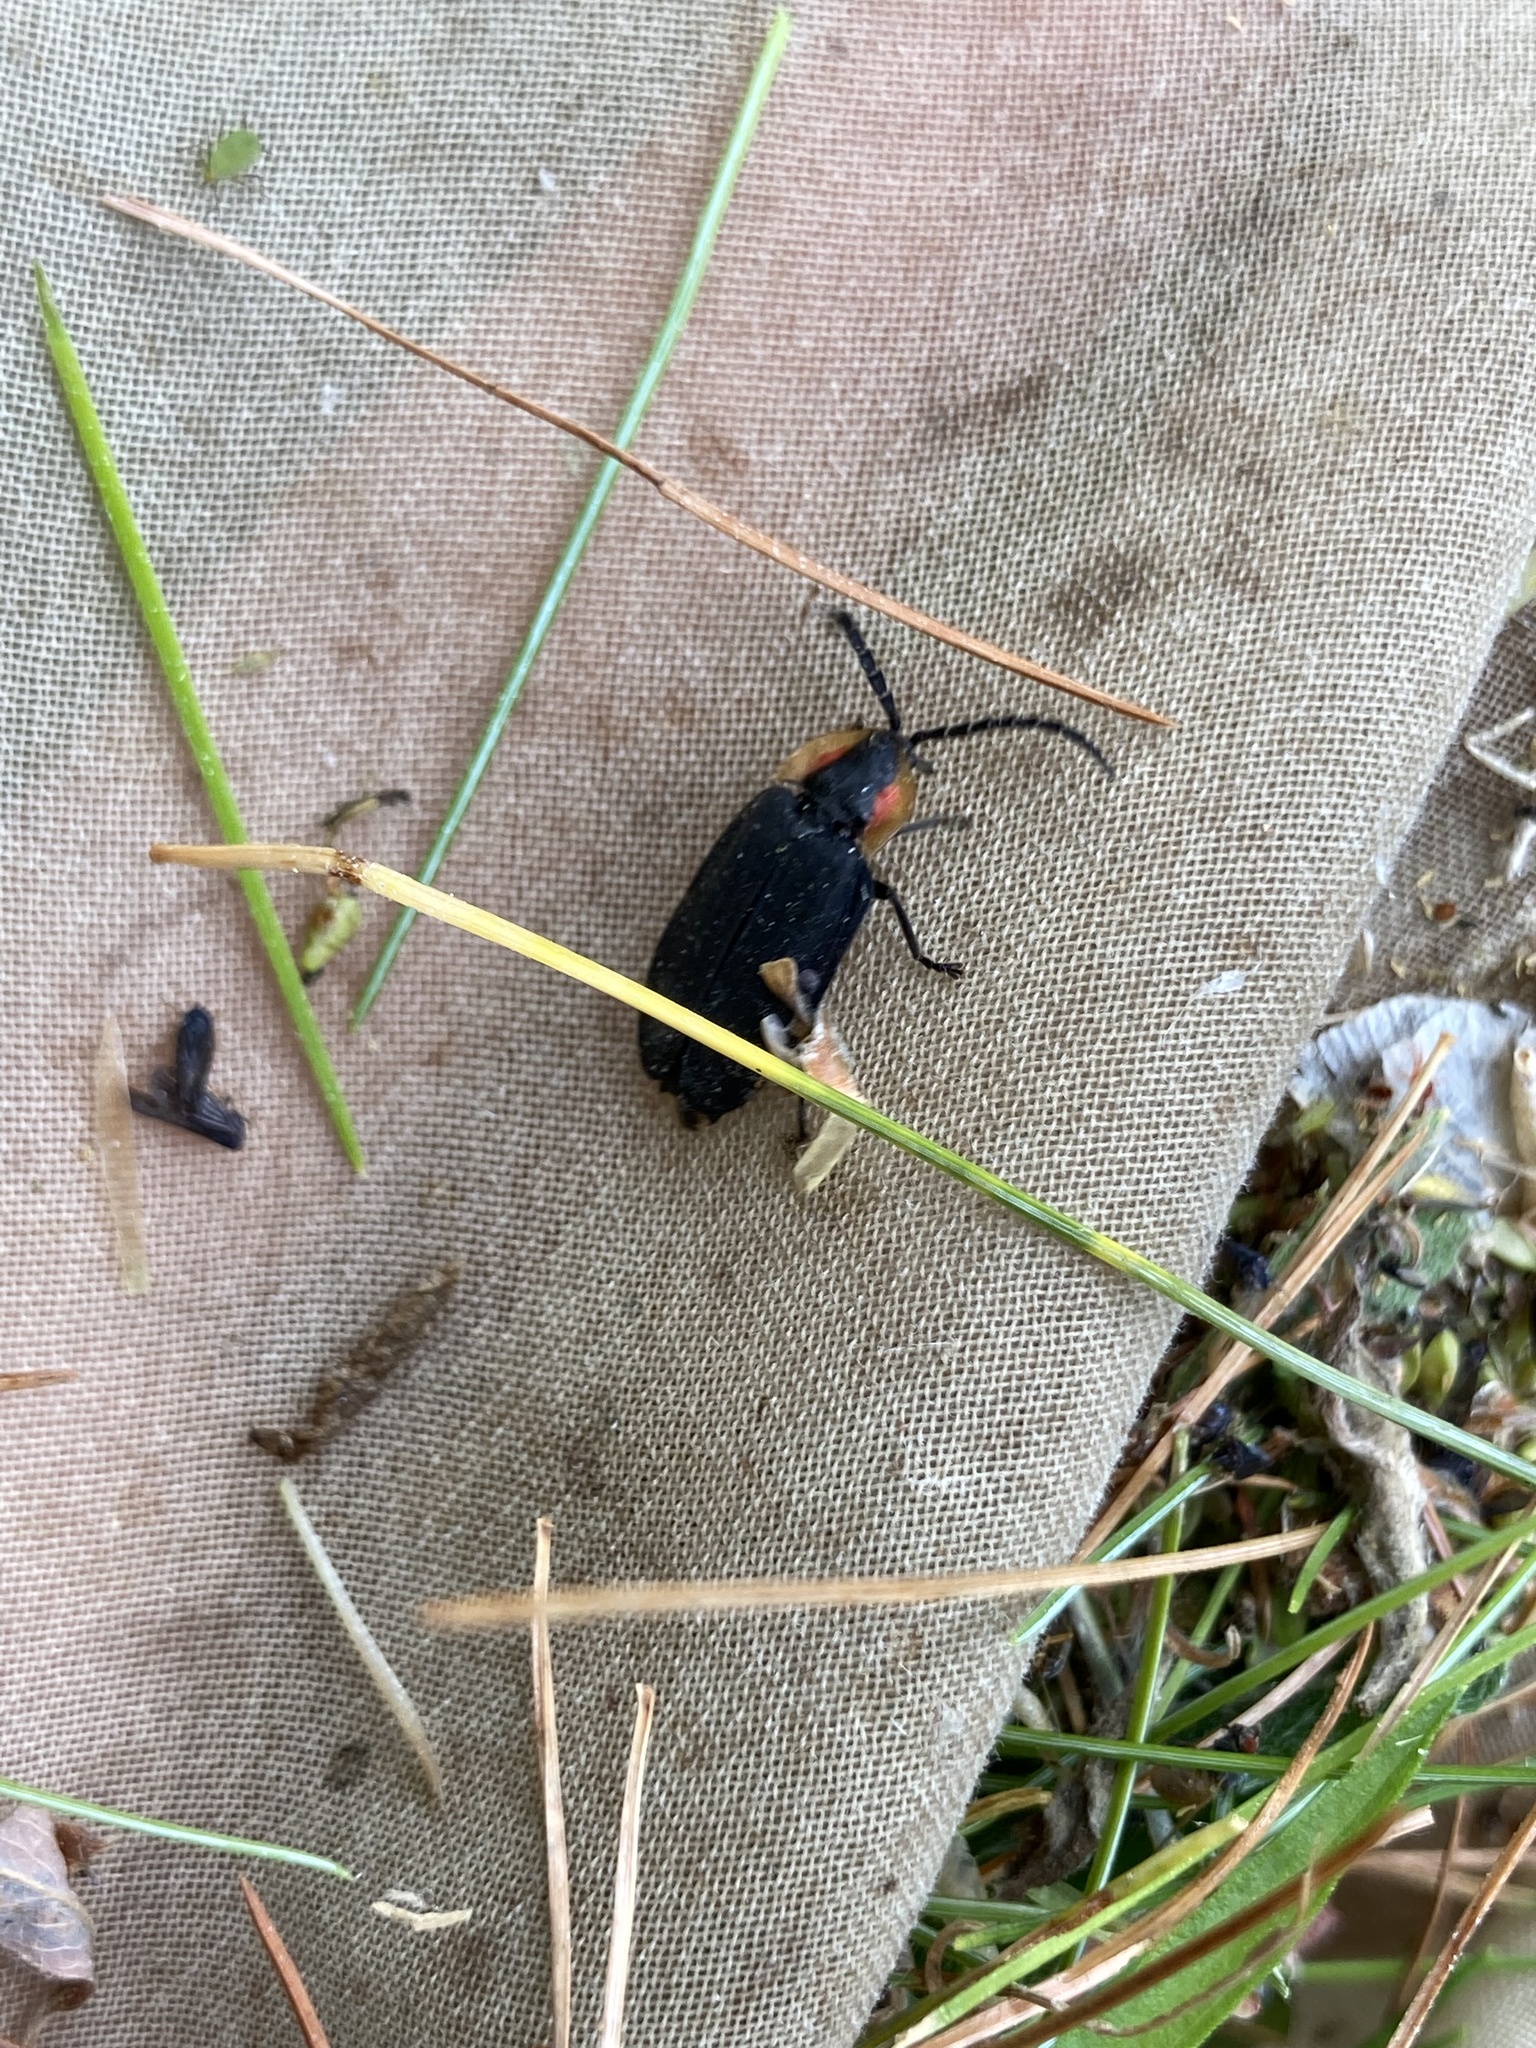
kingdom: Animalia
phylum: Arthropoda
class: Insecta
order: Coleoptera
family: Lampyridae
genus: Lucidota
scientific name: Lucidota atra
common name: Black firefly
